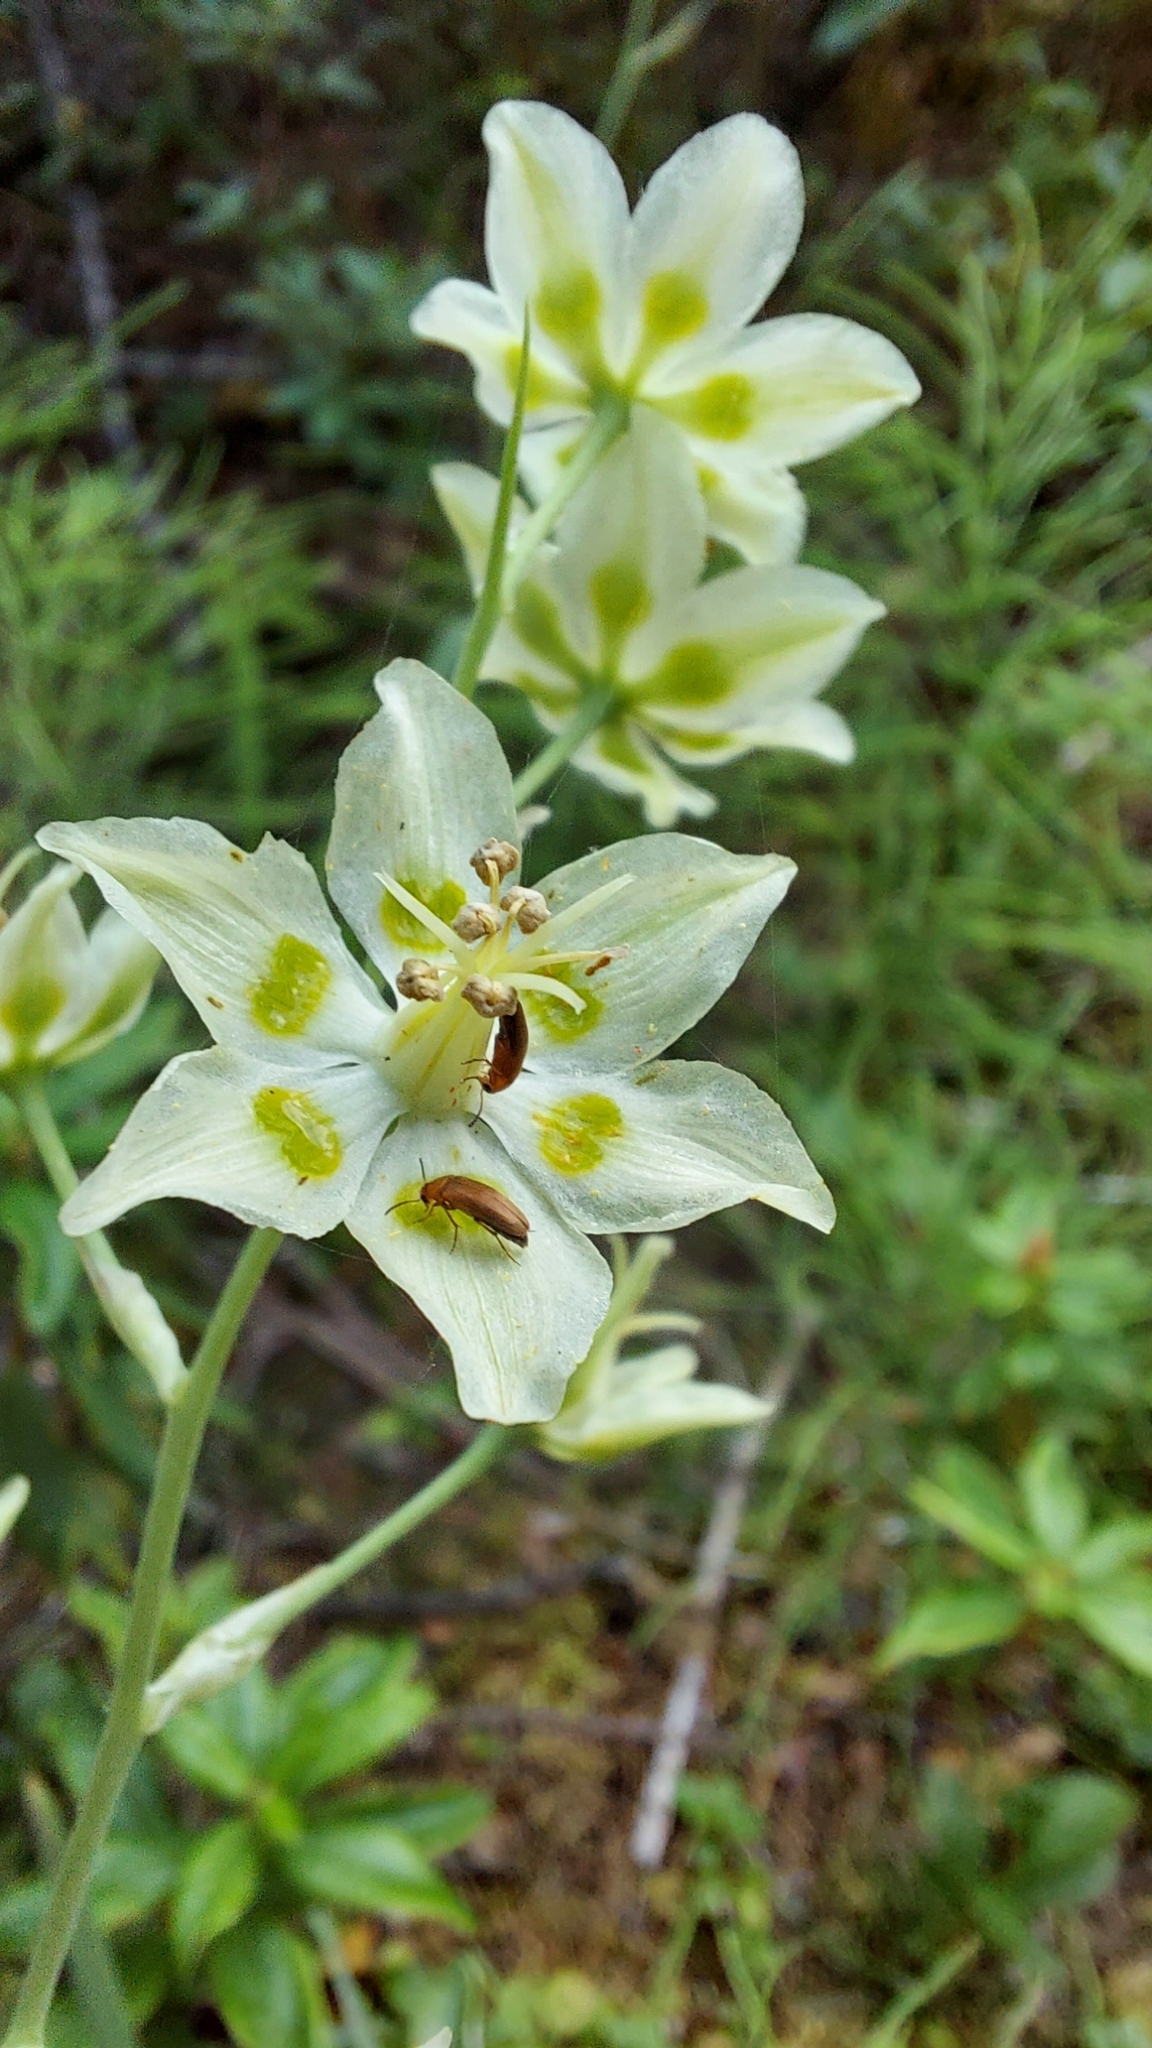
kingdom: Plantae
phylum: Tracheophyta
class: Liliopsida
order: Liliales
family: Melanthiaceae
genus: Anticlea
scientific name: Anticlea elegans
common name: Mountain death camas
